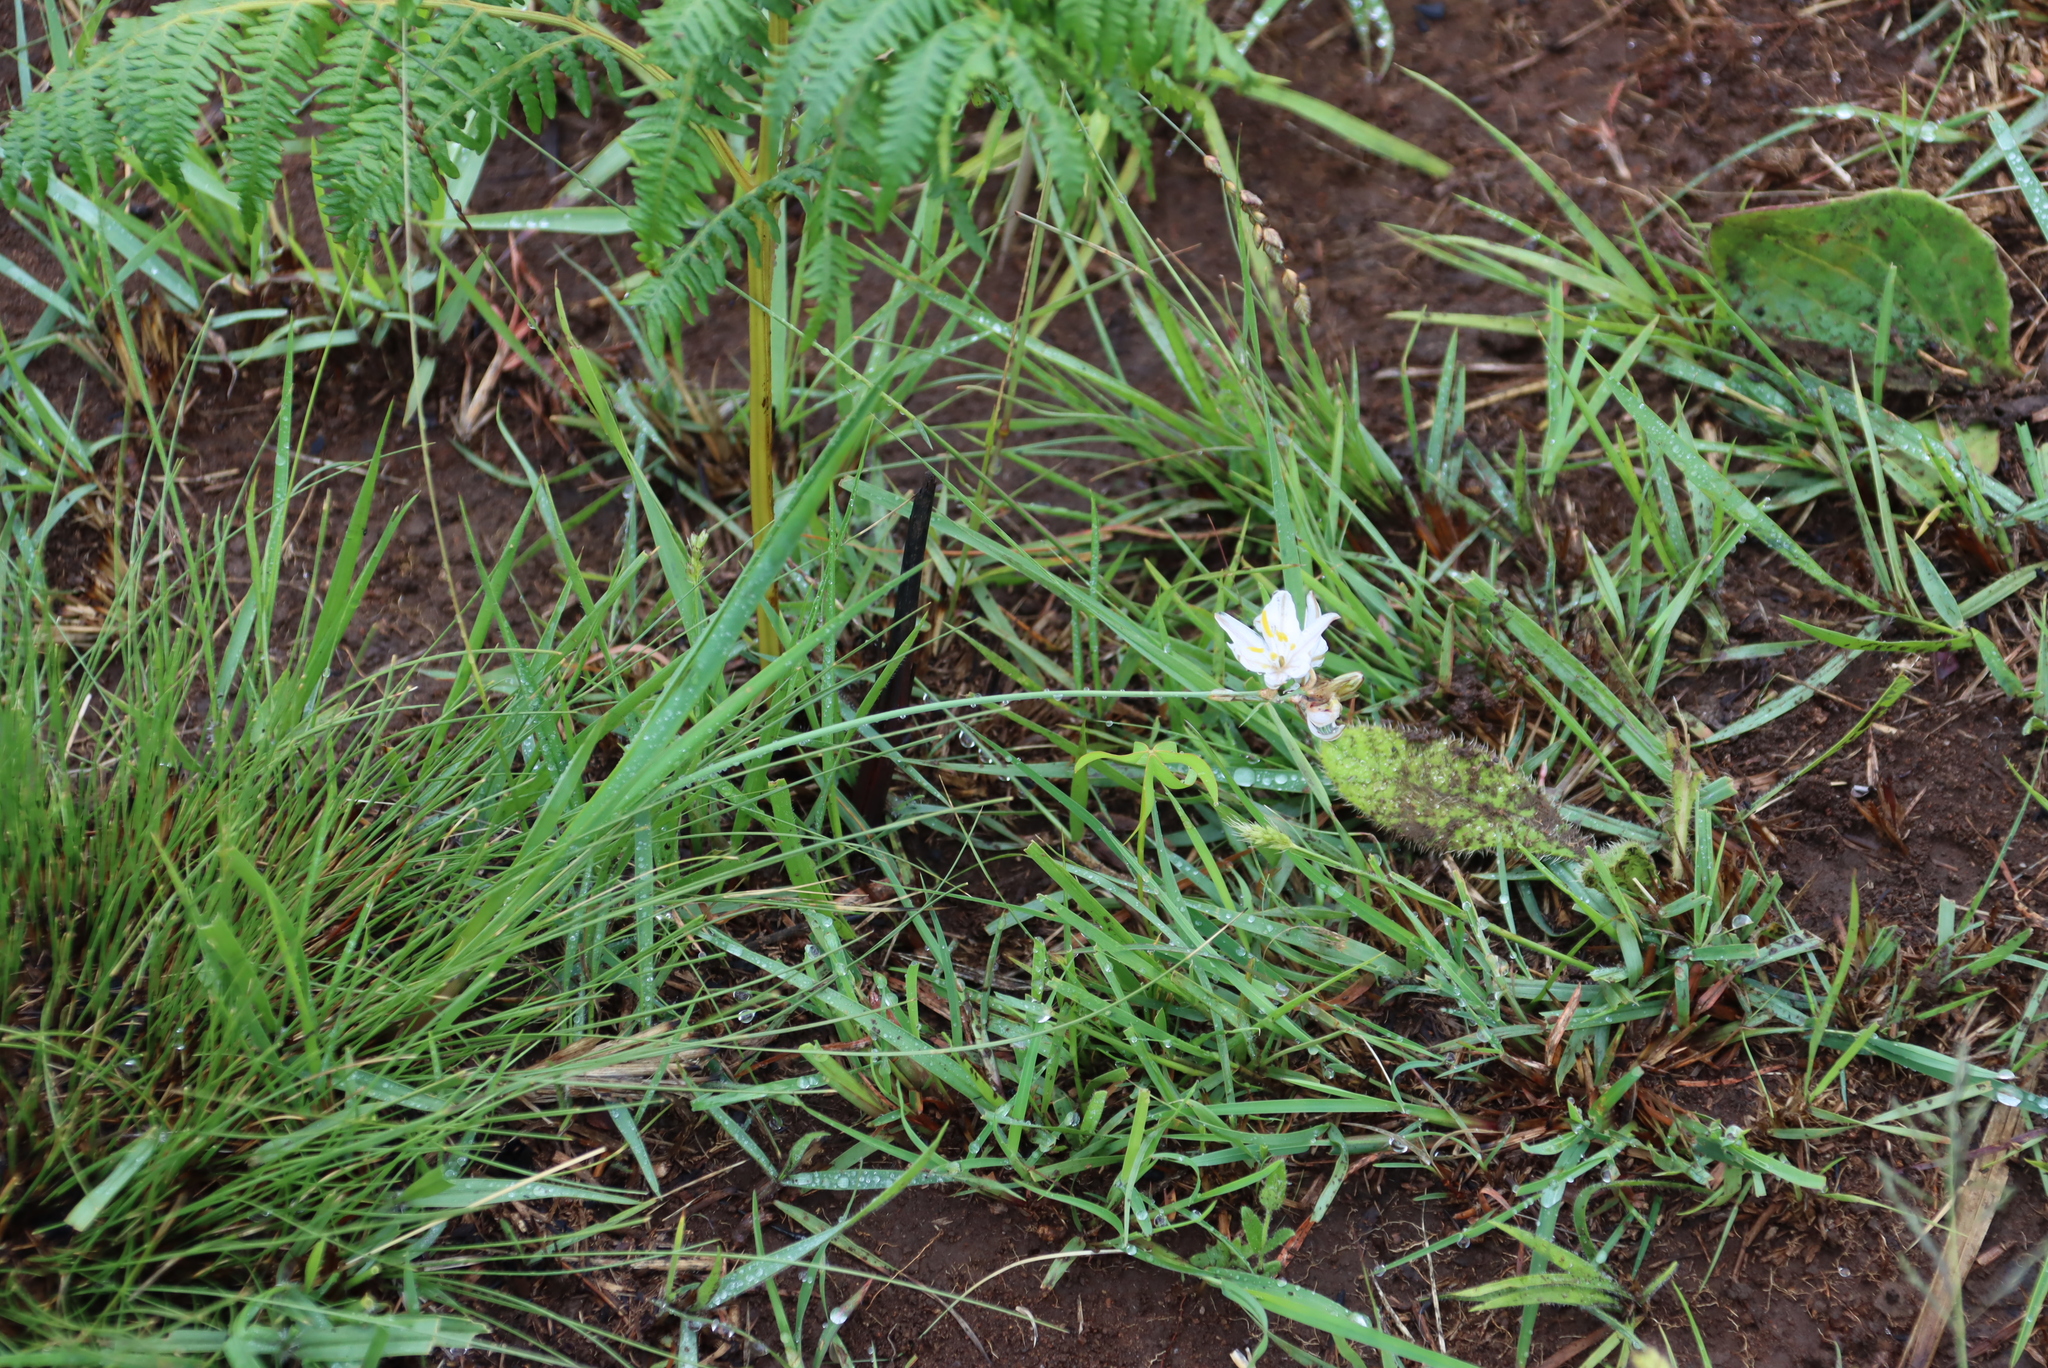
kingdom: Plantae
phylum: Tracheophyta
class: Magnoliopsida
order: Oxalidales
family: Oxalidaceae
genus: Oxalis
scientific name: Oxalis smithiana
